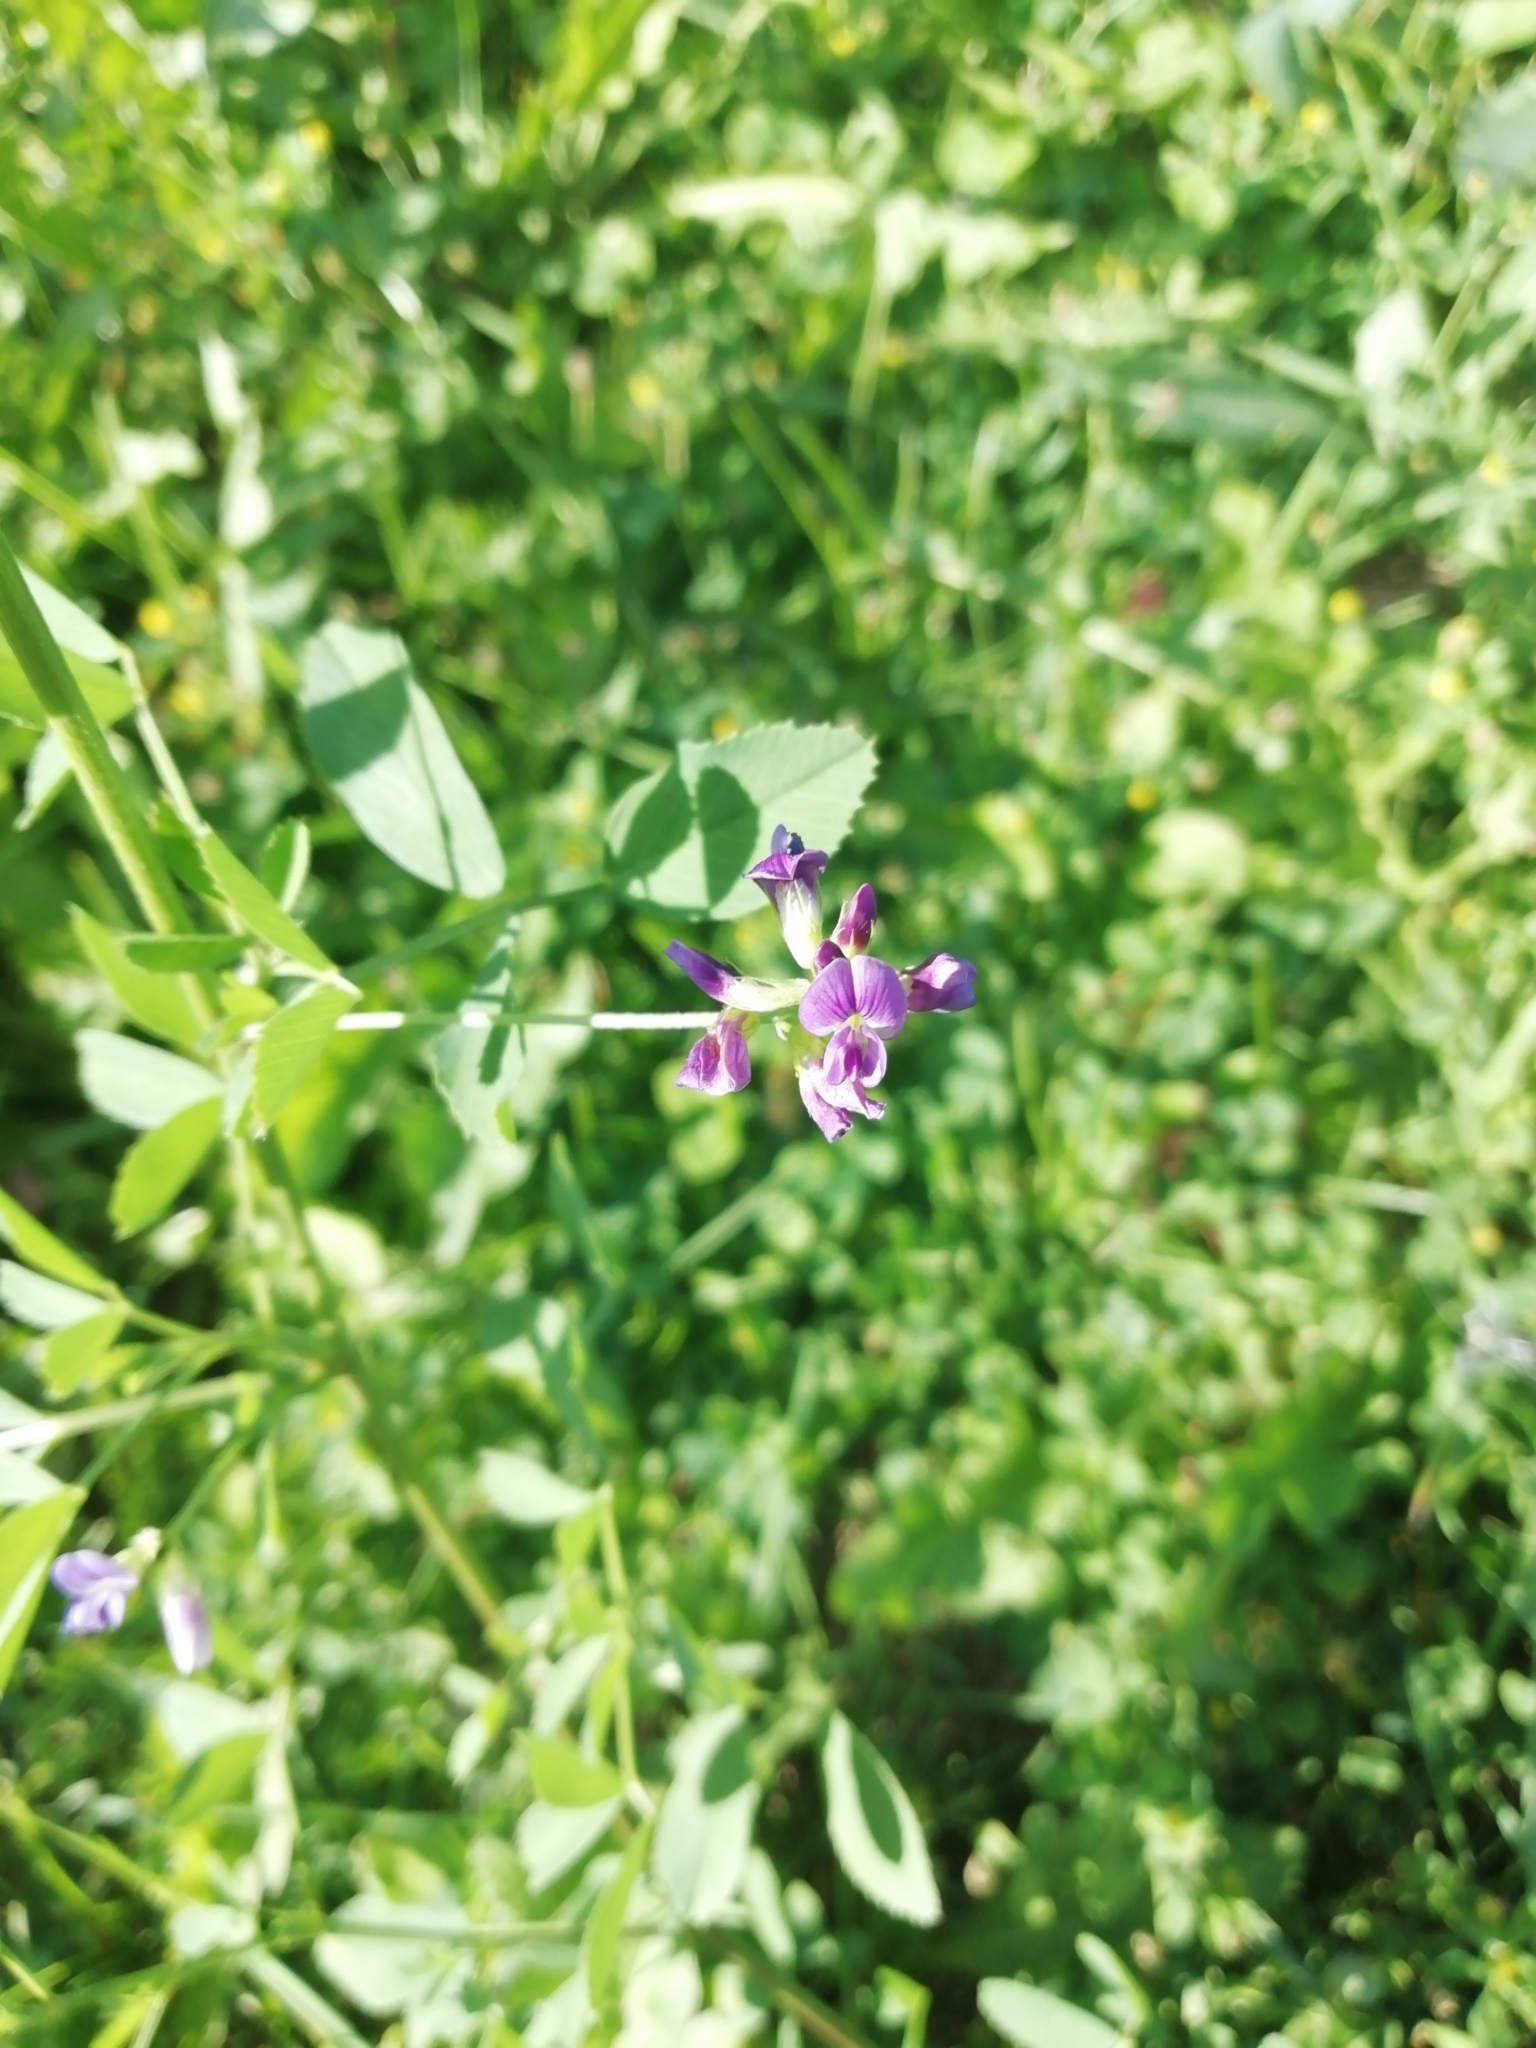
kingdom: Plantae
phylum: Tracheophyta
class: Magnoliopsida
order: Fabales
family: Fabaceae
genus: Medicago
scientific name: Medicago sativa
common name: Alfalfa
